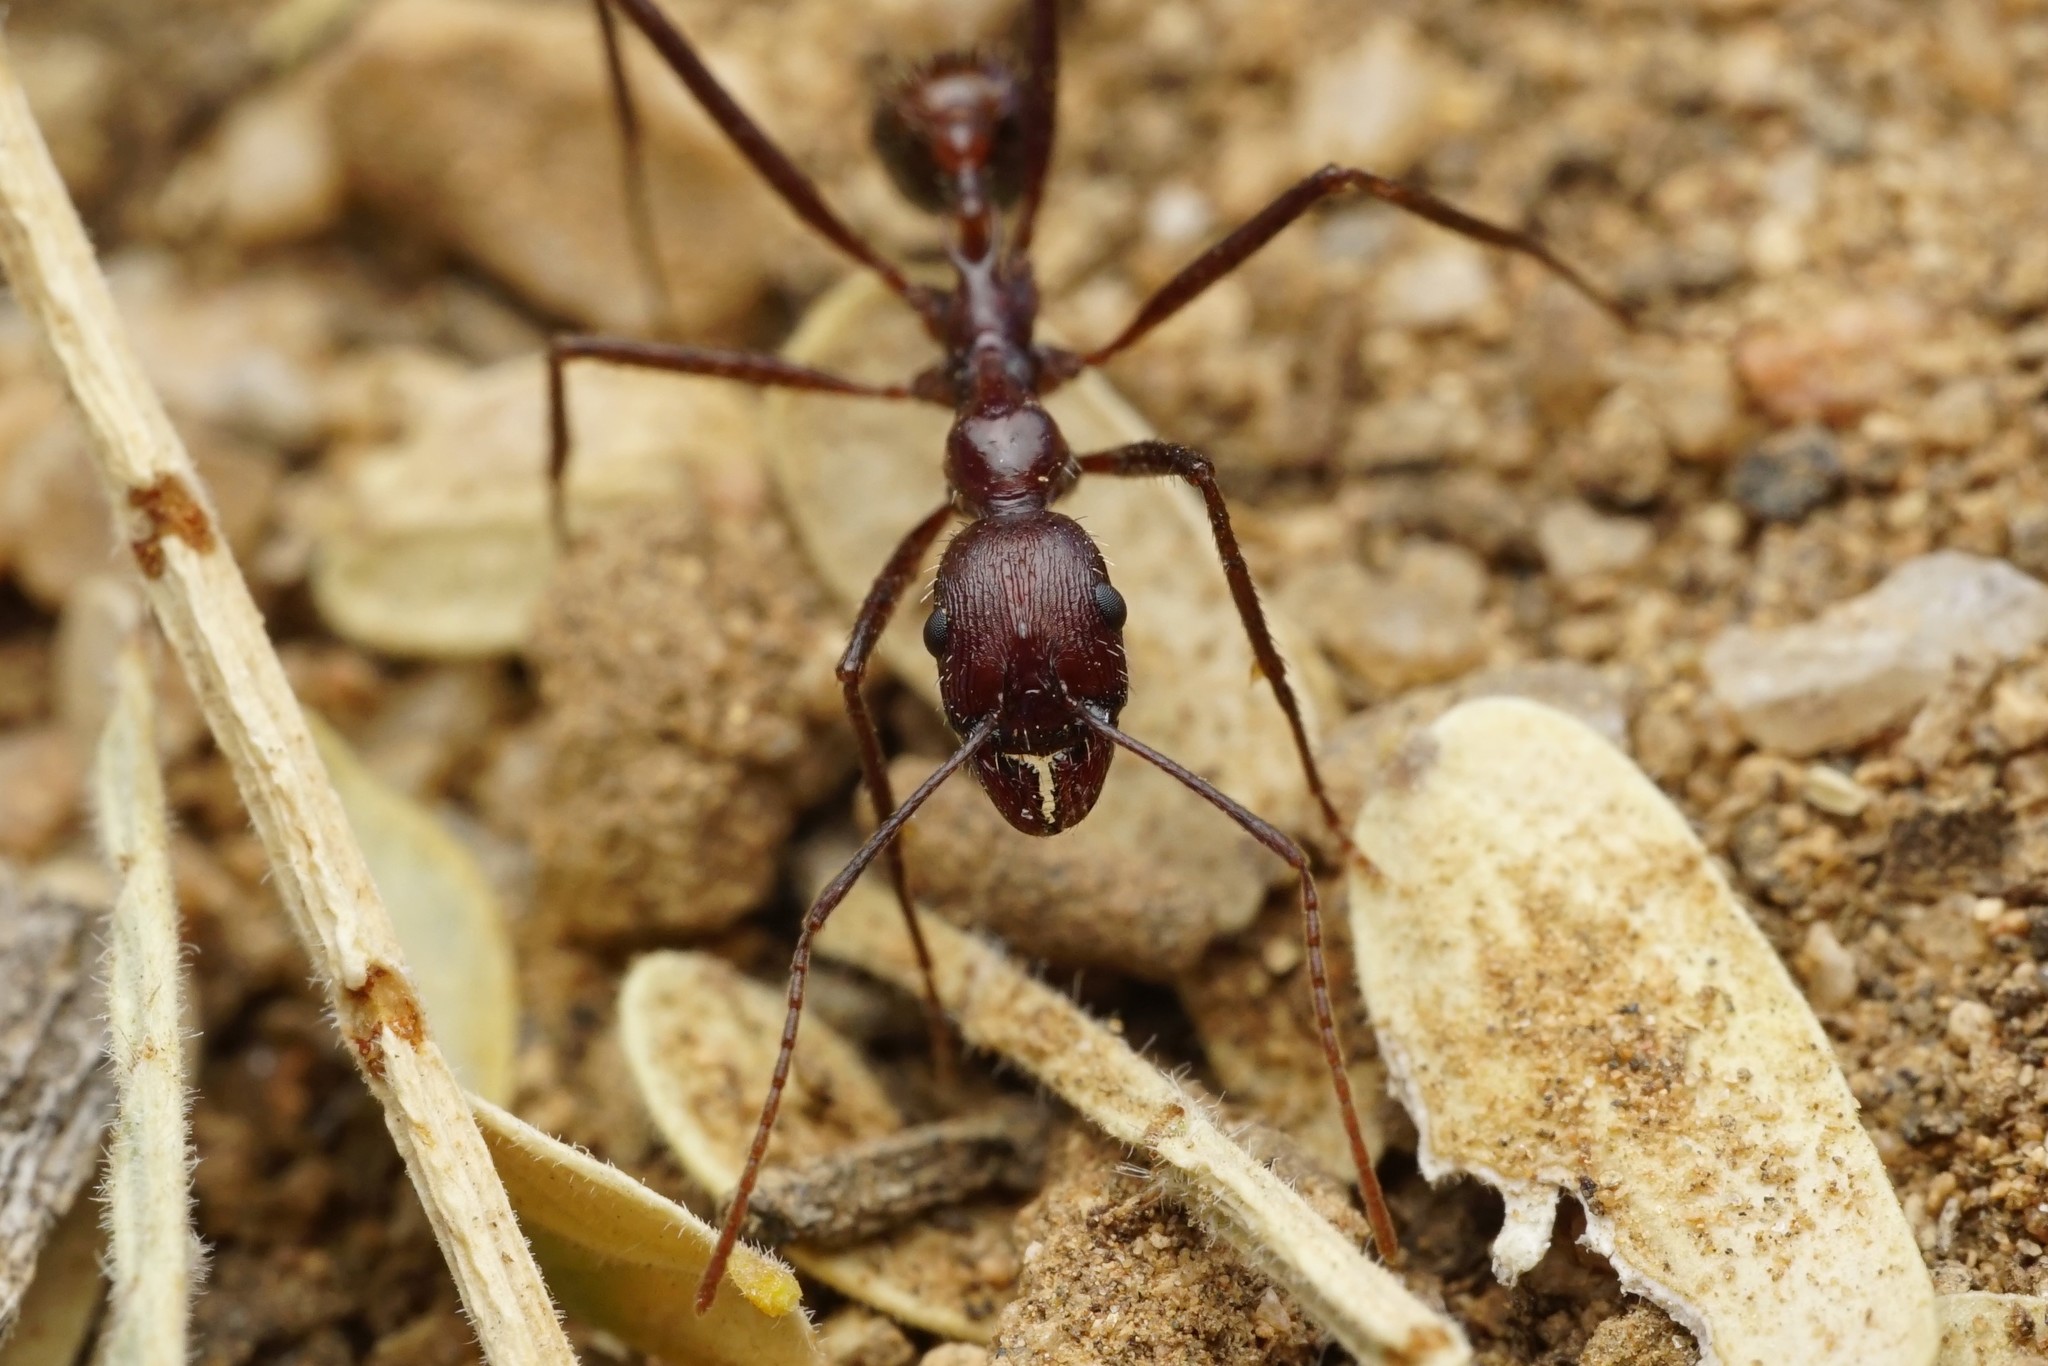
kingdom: Animalia
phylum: Arthropoda
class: Insecta
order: Hymenoptera
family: Formicidae
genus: Novomessor
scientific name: Novomessor cockerelli
